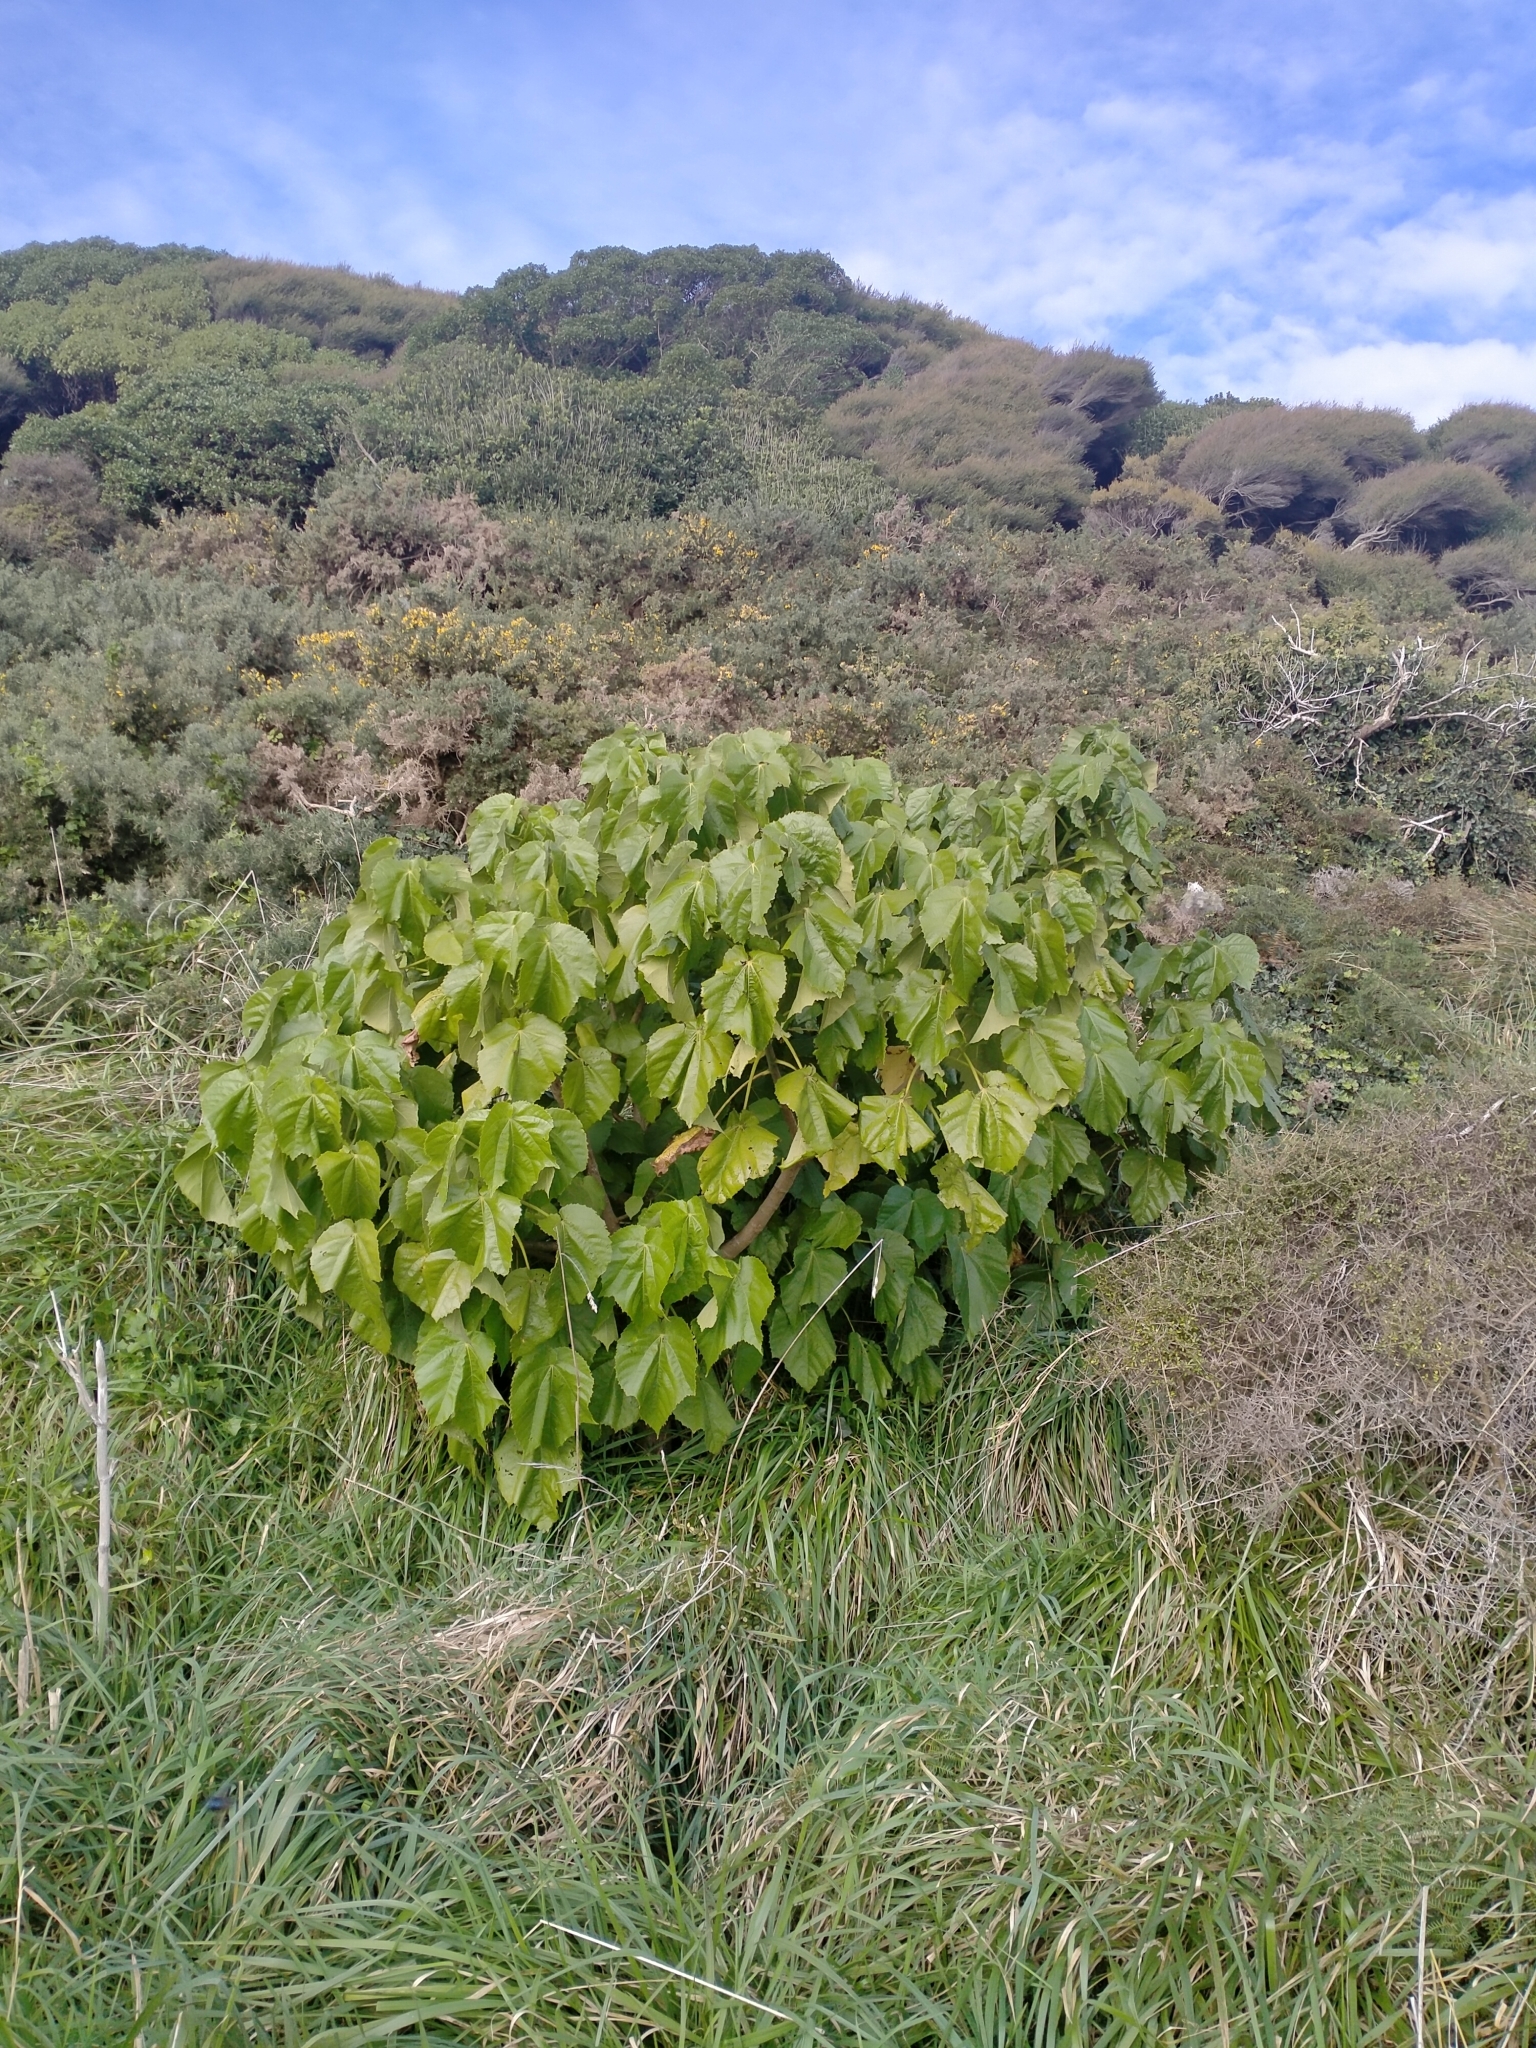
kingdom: Plantae
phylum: Tracheophyta
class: Magnoliopsida
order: Malvales
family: Malvaceae
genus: Entelea
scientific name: Entelea arborescens
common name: New zealand-mulberry
